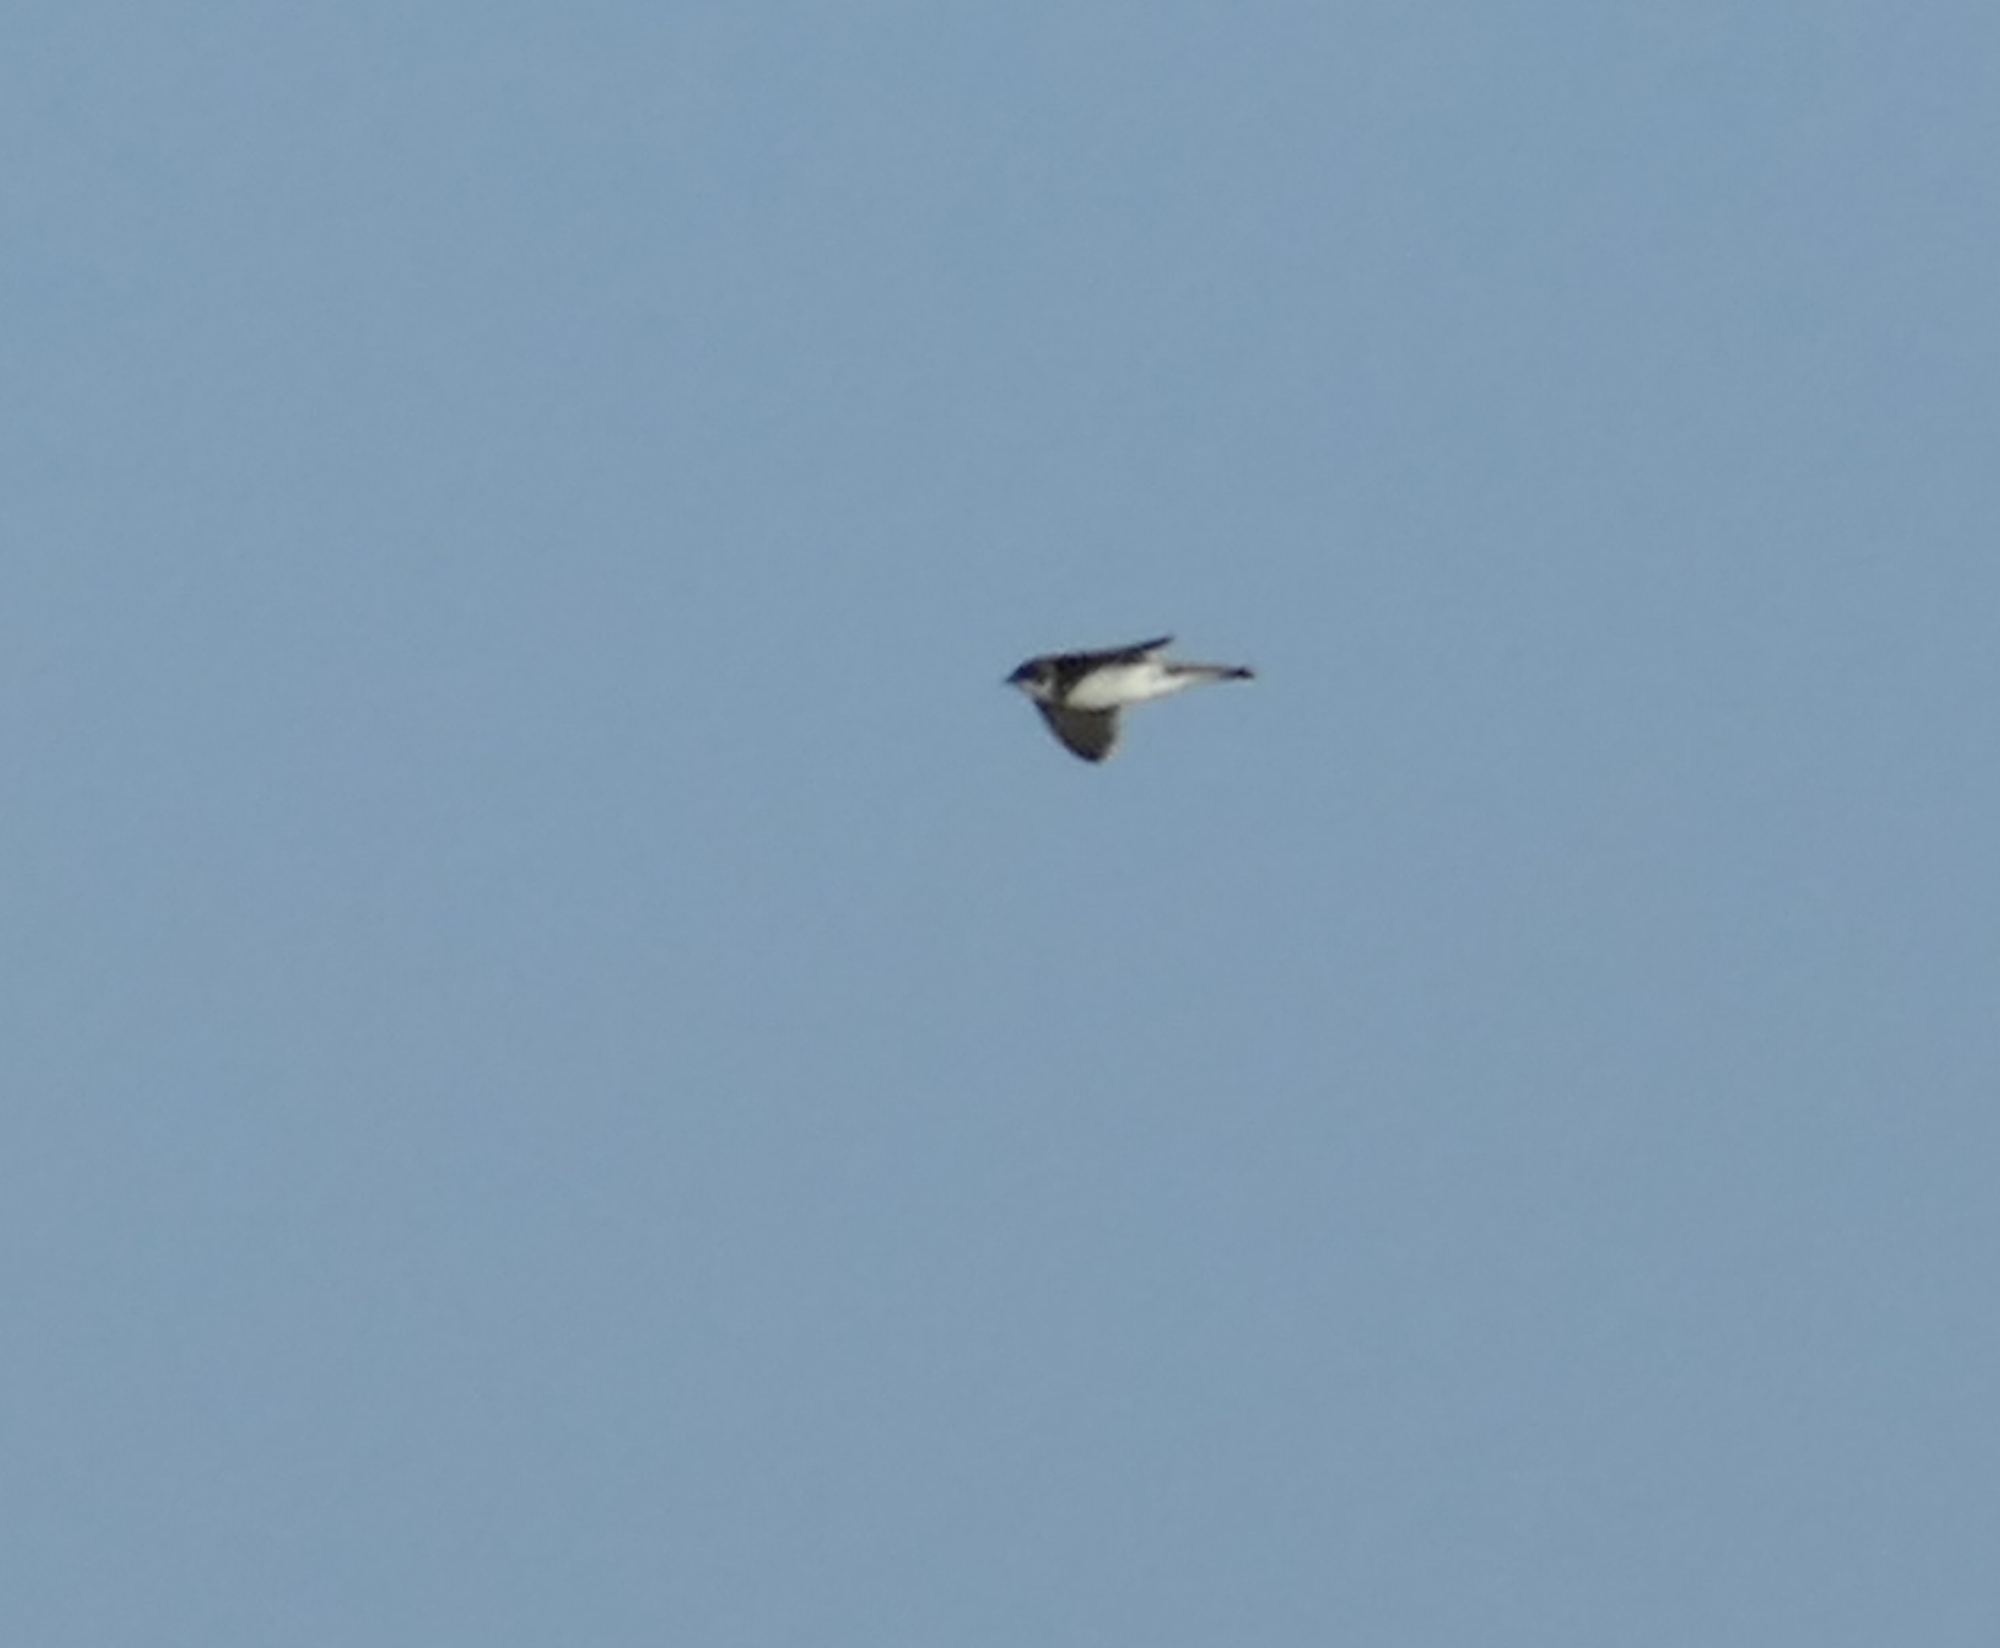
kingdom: Animalia
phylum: Chordata
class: Aves
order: Passeriformes
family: Hirundinidae
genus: Riparia
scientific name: Riparia riparia
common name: Sand martin
